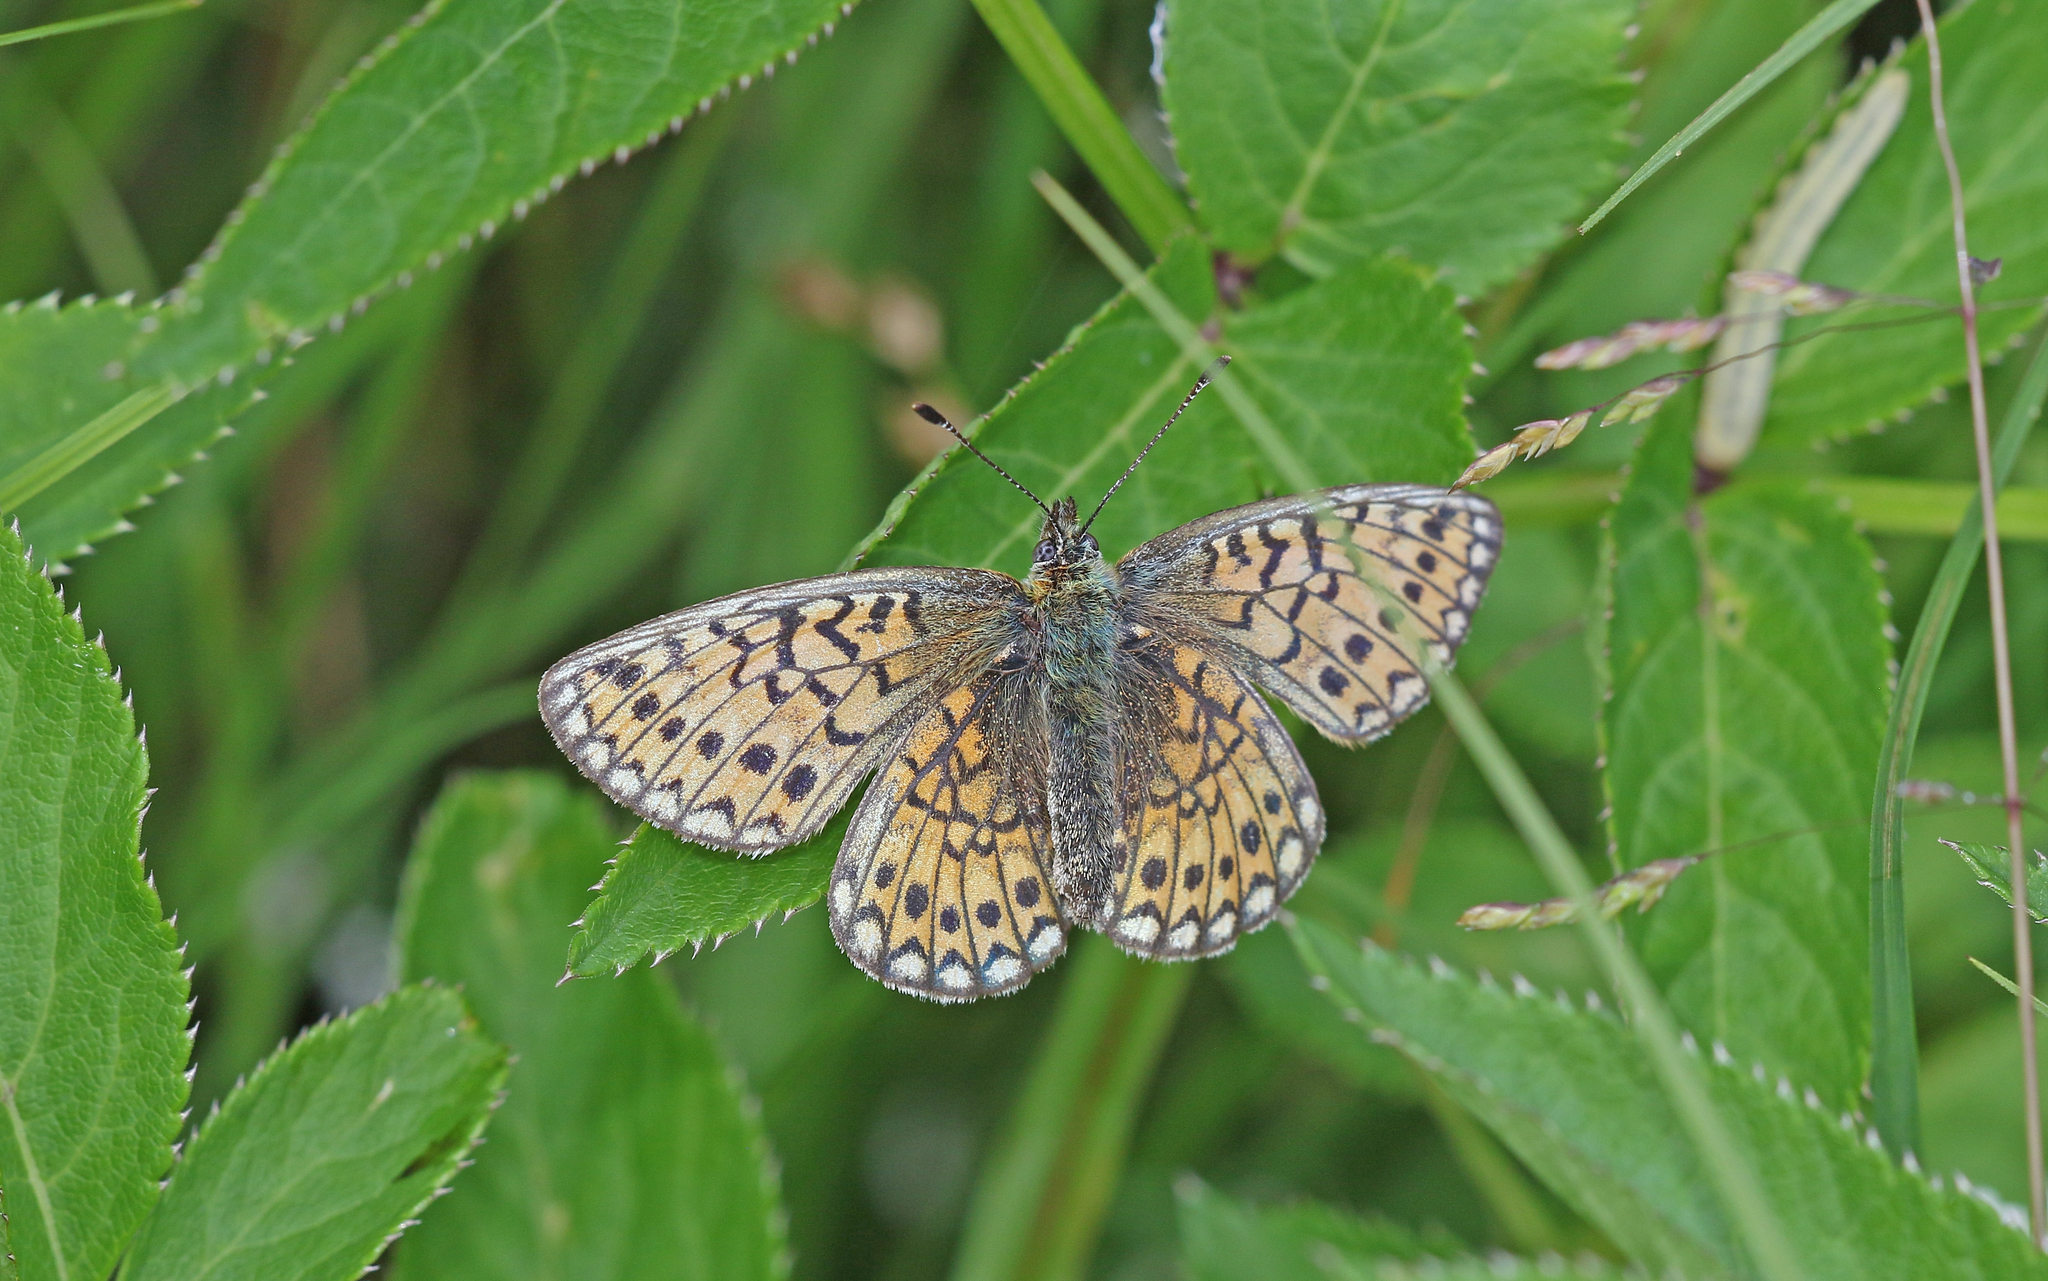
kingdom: Animalia
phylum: Arthropoda
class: Insecta
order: Lepidoptera
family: Nymphalidae
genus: Boloria
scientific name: Boloria eunomia
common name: Bog fritillary
